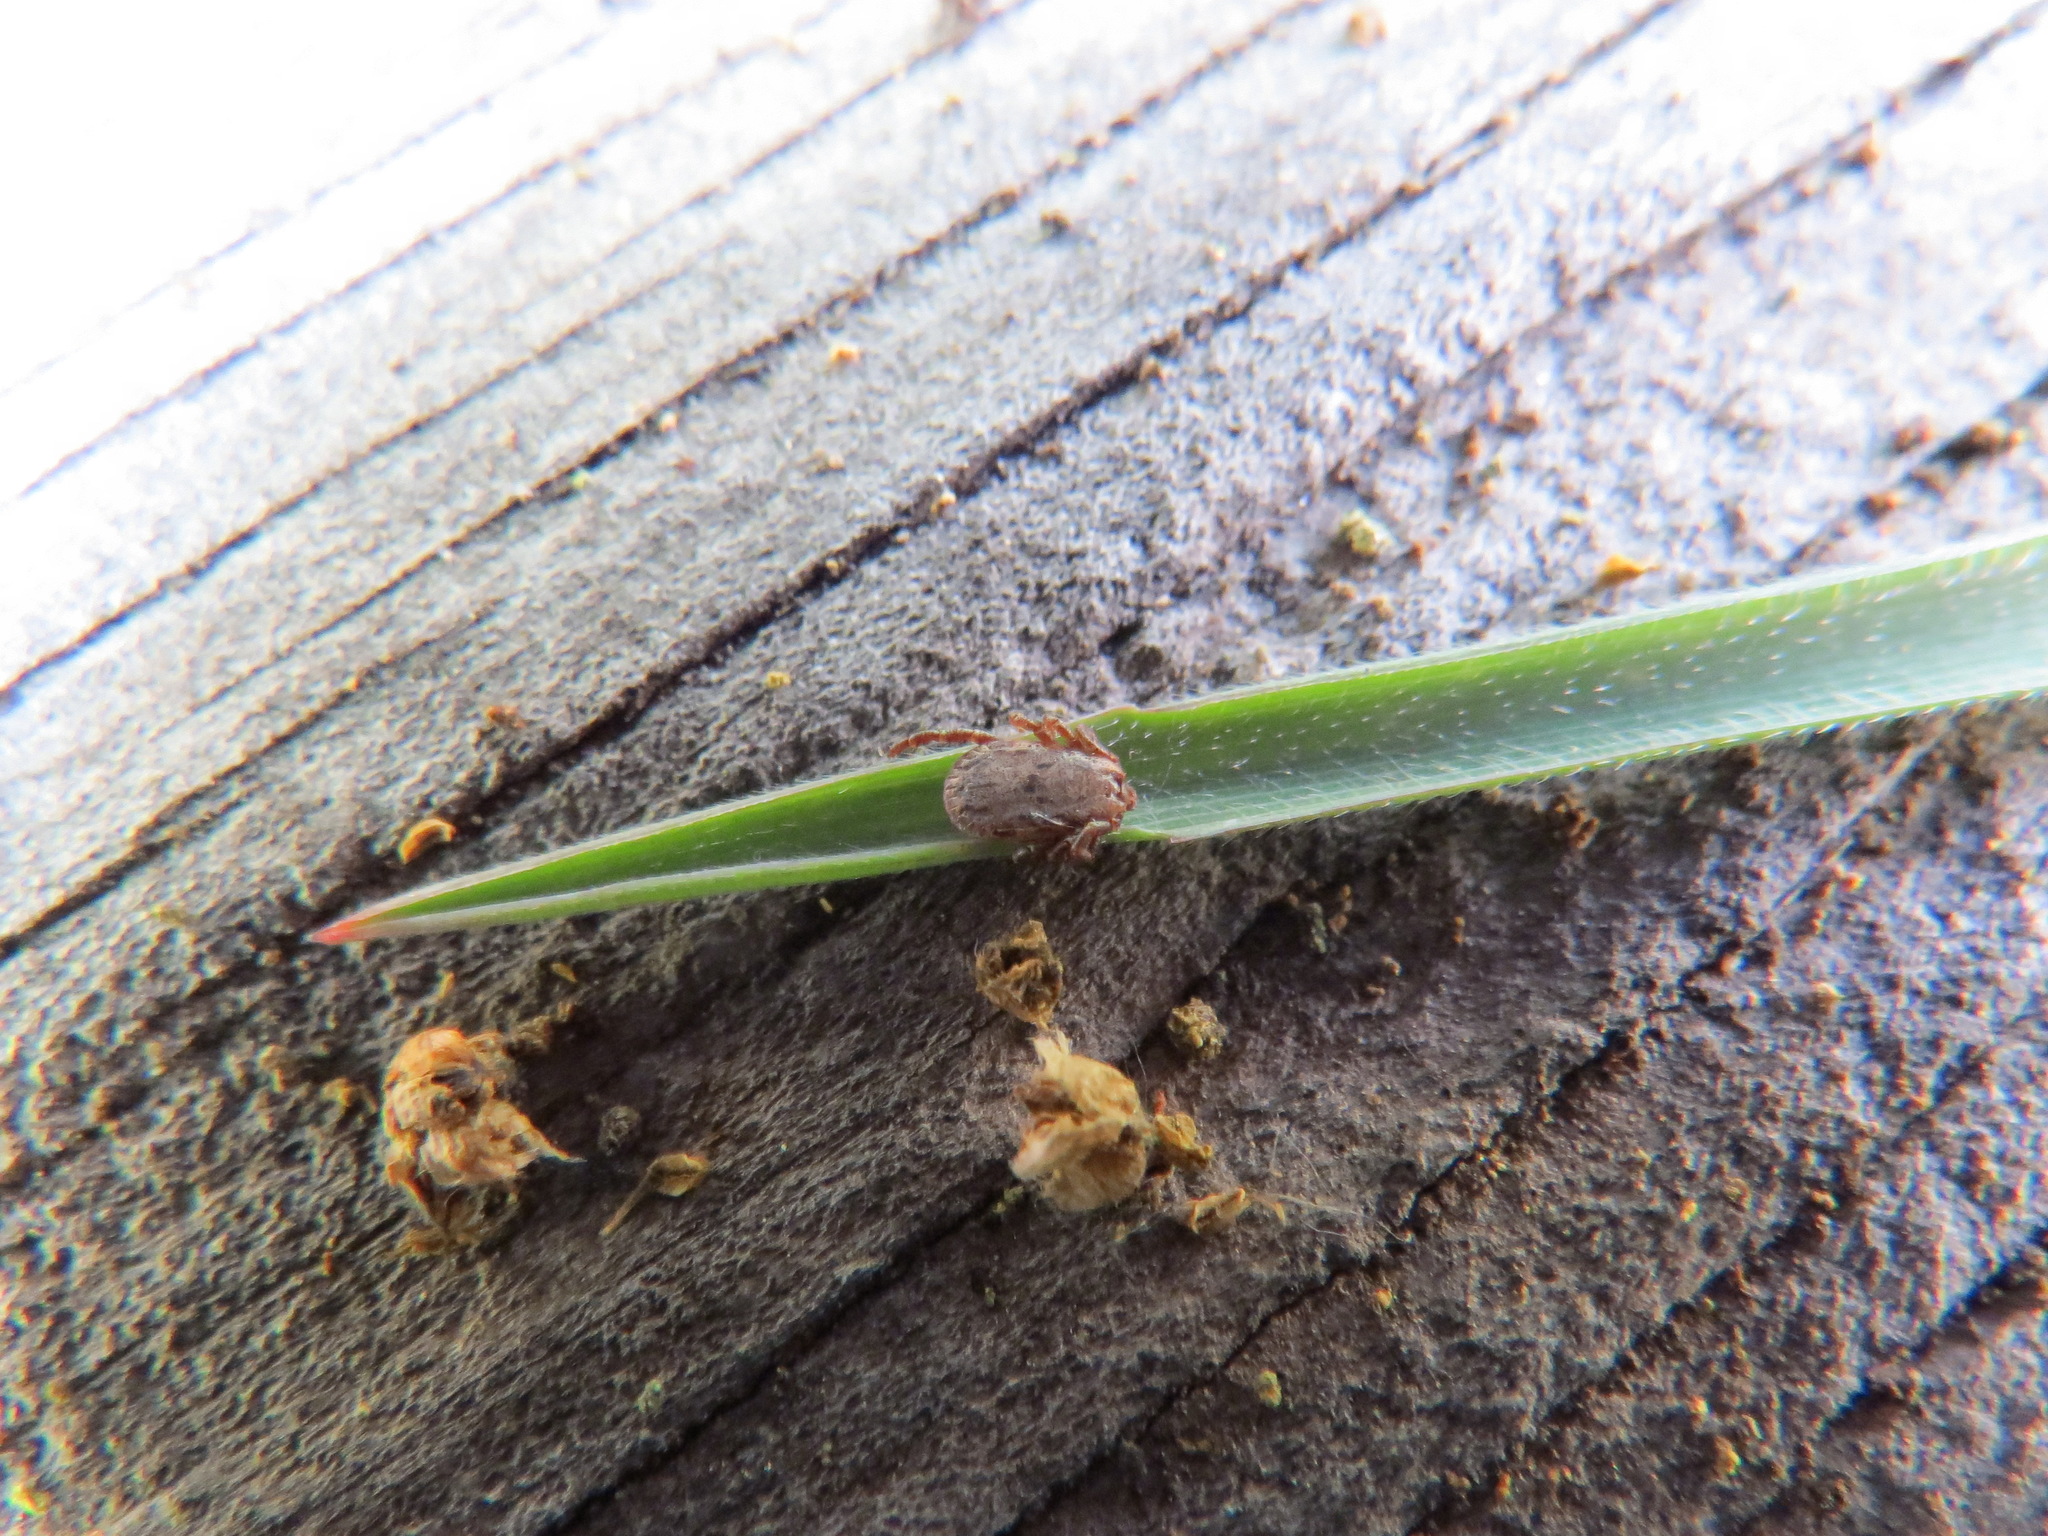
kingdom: Animalia
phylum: Arthropoda
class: Arachnida
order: Ixodida
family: Ixodidae
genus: Dermacentor
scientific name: Dermacentor occidentalis
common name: Net tick
